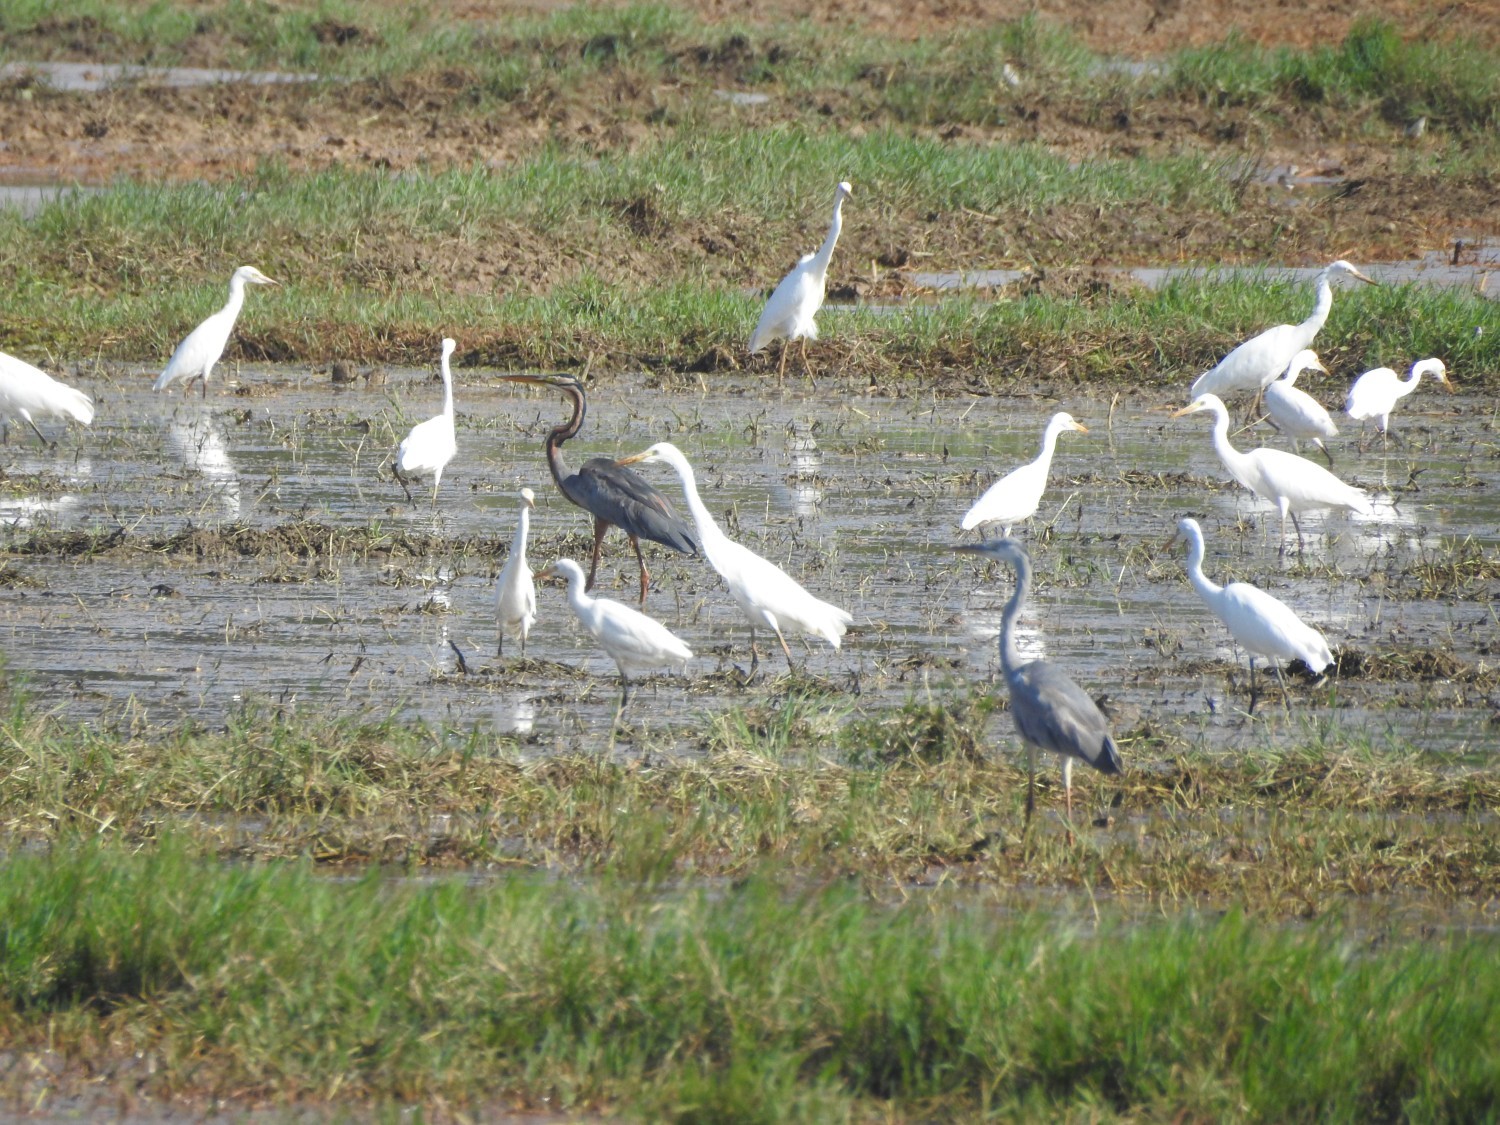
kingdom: Animalia
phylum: Chordata
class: Aves
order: Pelecaniformes
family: Ardeidae
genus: Ardea
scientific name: Ardea purpurea
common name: Purple heron
